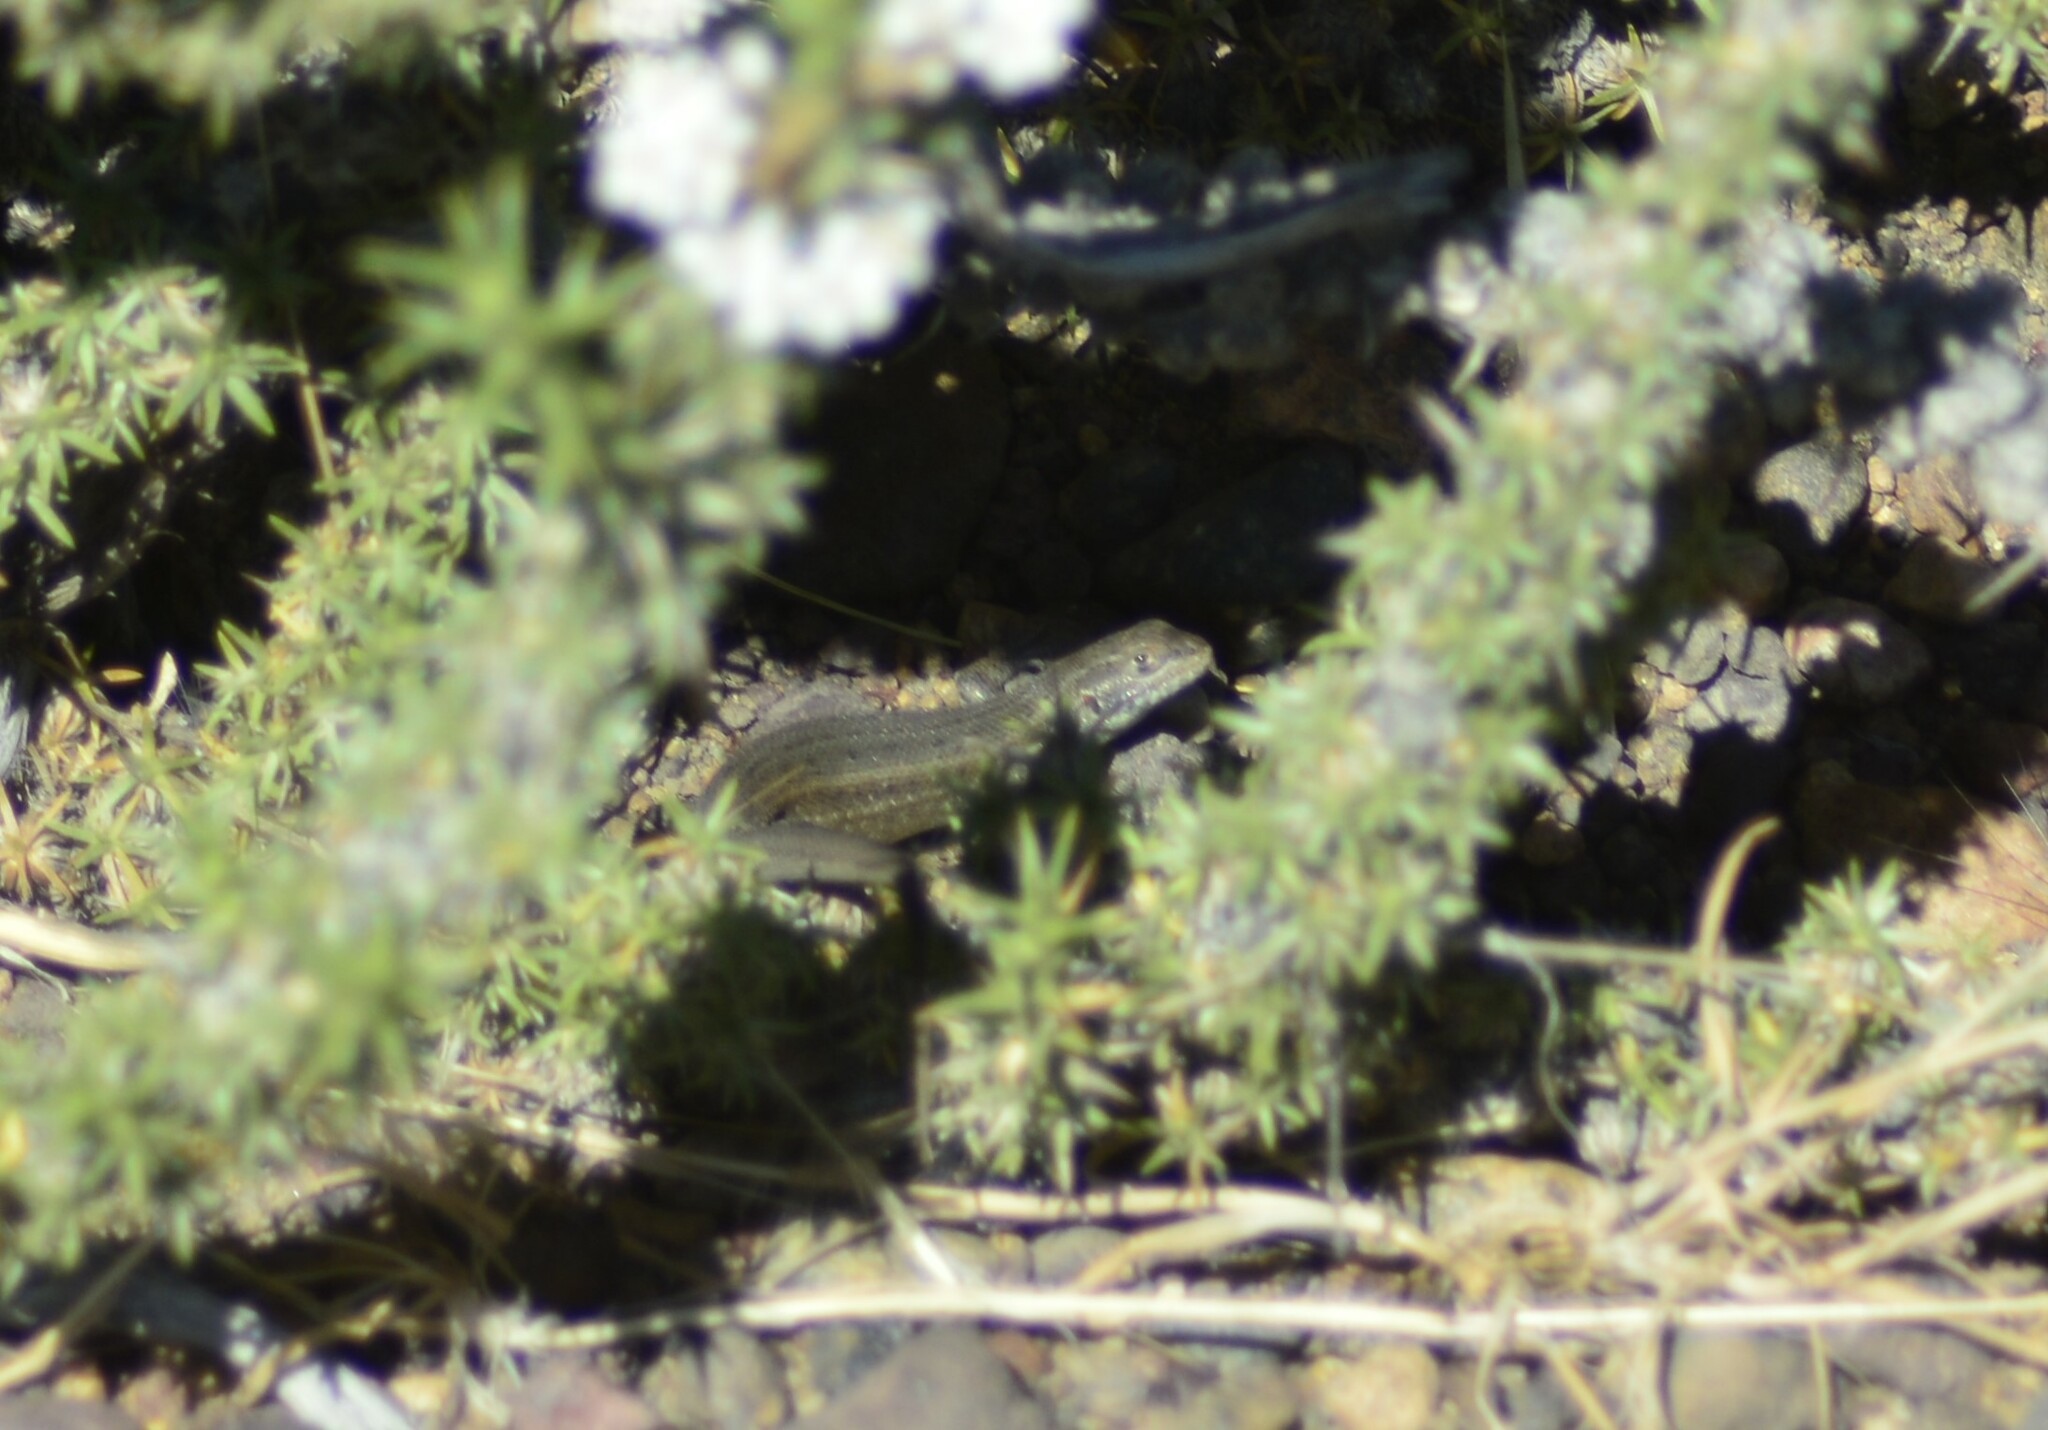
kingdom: Animalia
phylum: Chordata
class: Squamata
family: Liolaemidae
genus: Liolaemus
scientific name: Liolaemus bibronii
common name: Bibron's tree iguana
